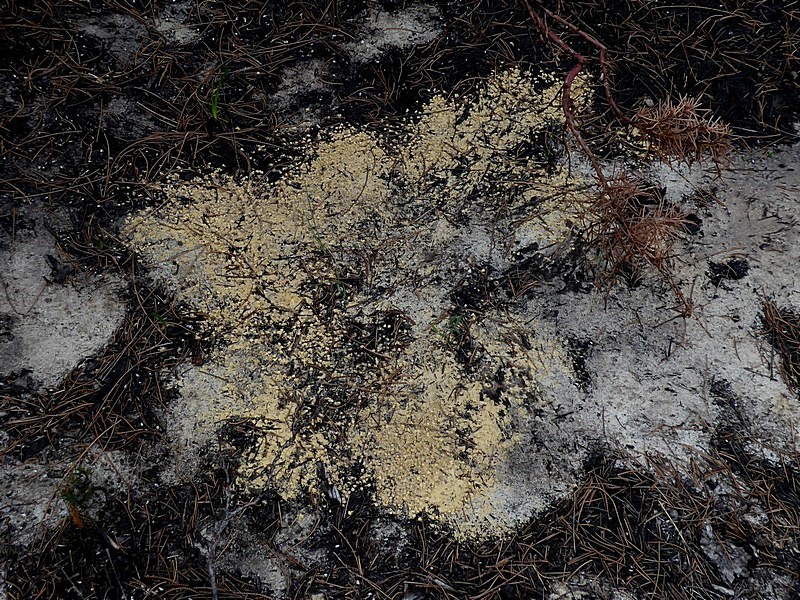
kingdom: Animalia
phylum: Arthropoda
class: Insecta
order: Hymenoptera
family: Formicidae
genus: Polyrhachis
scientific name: Polyrhachis ammon
